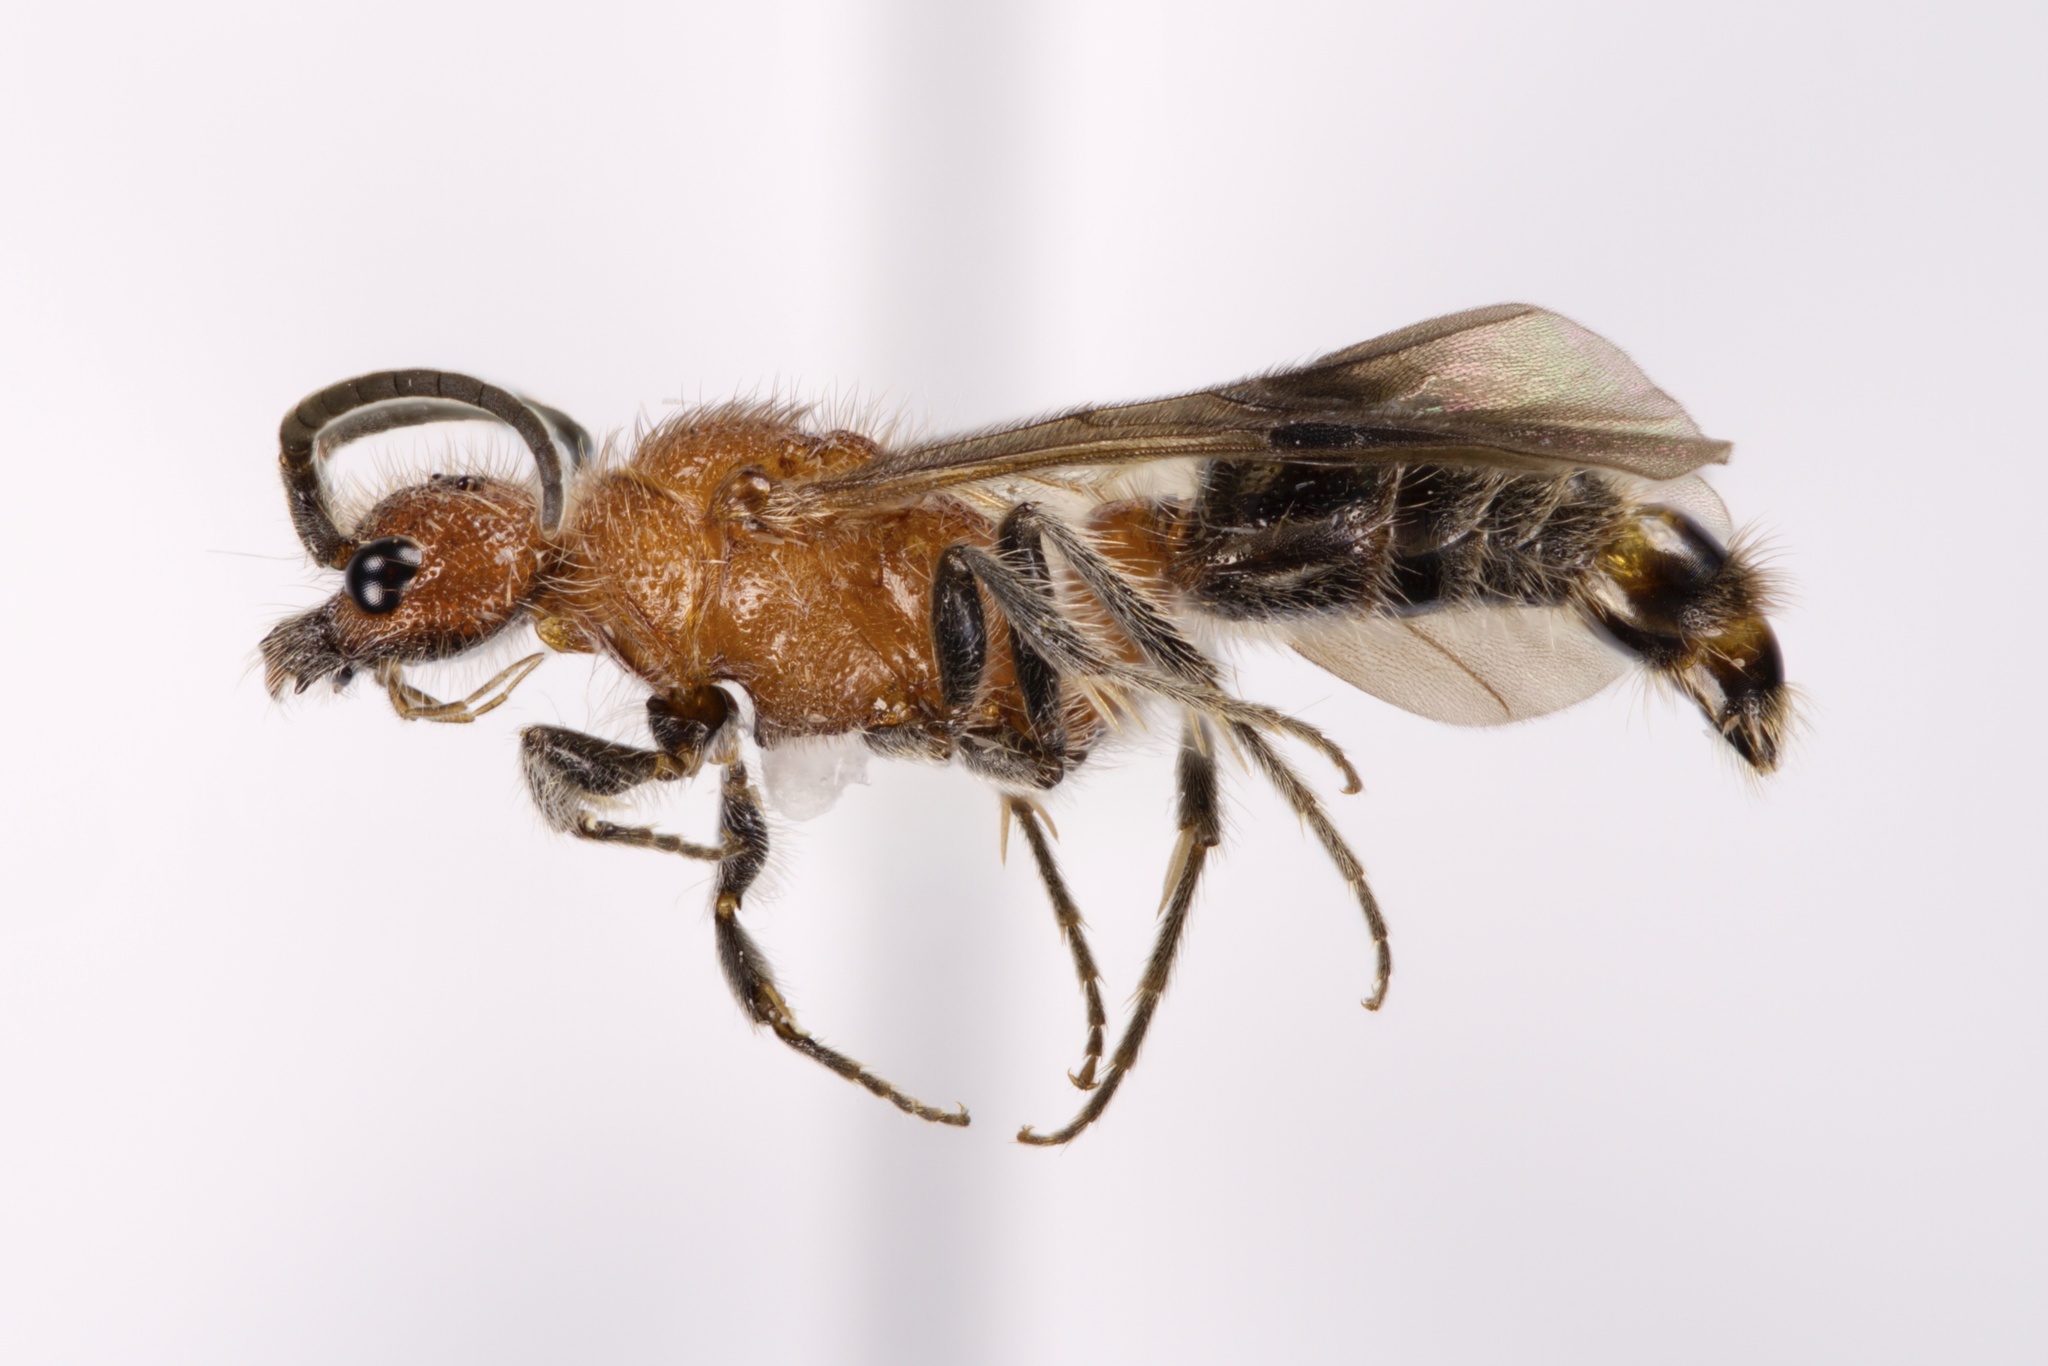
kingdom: Animalia
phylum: Arthropoda
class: Insecta
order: Hymenoptera
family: Mutillidae
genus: Photomorphus
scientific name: Photomorphus impar
